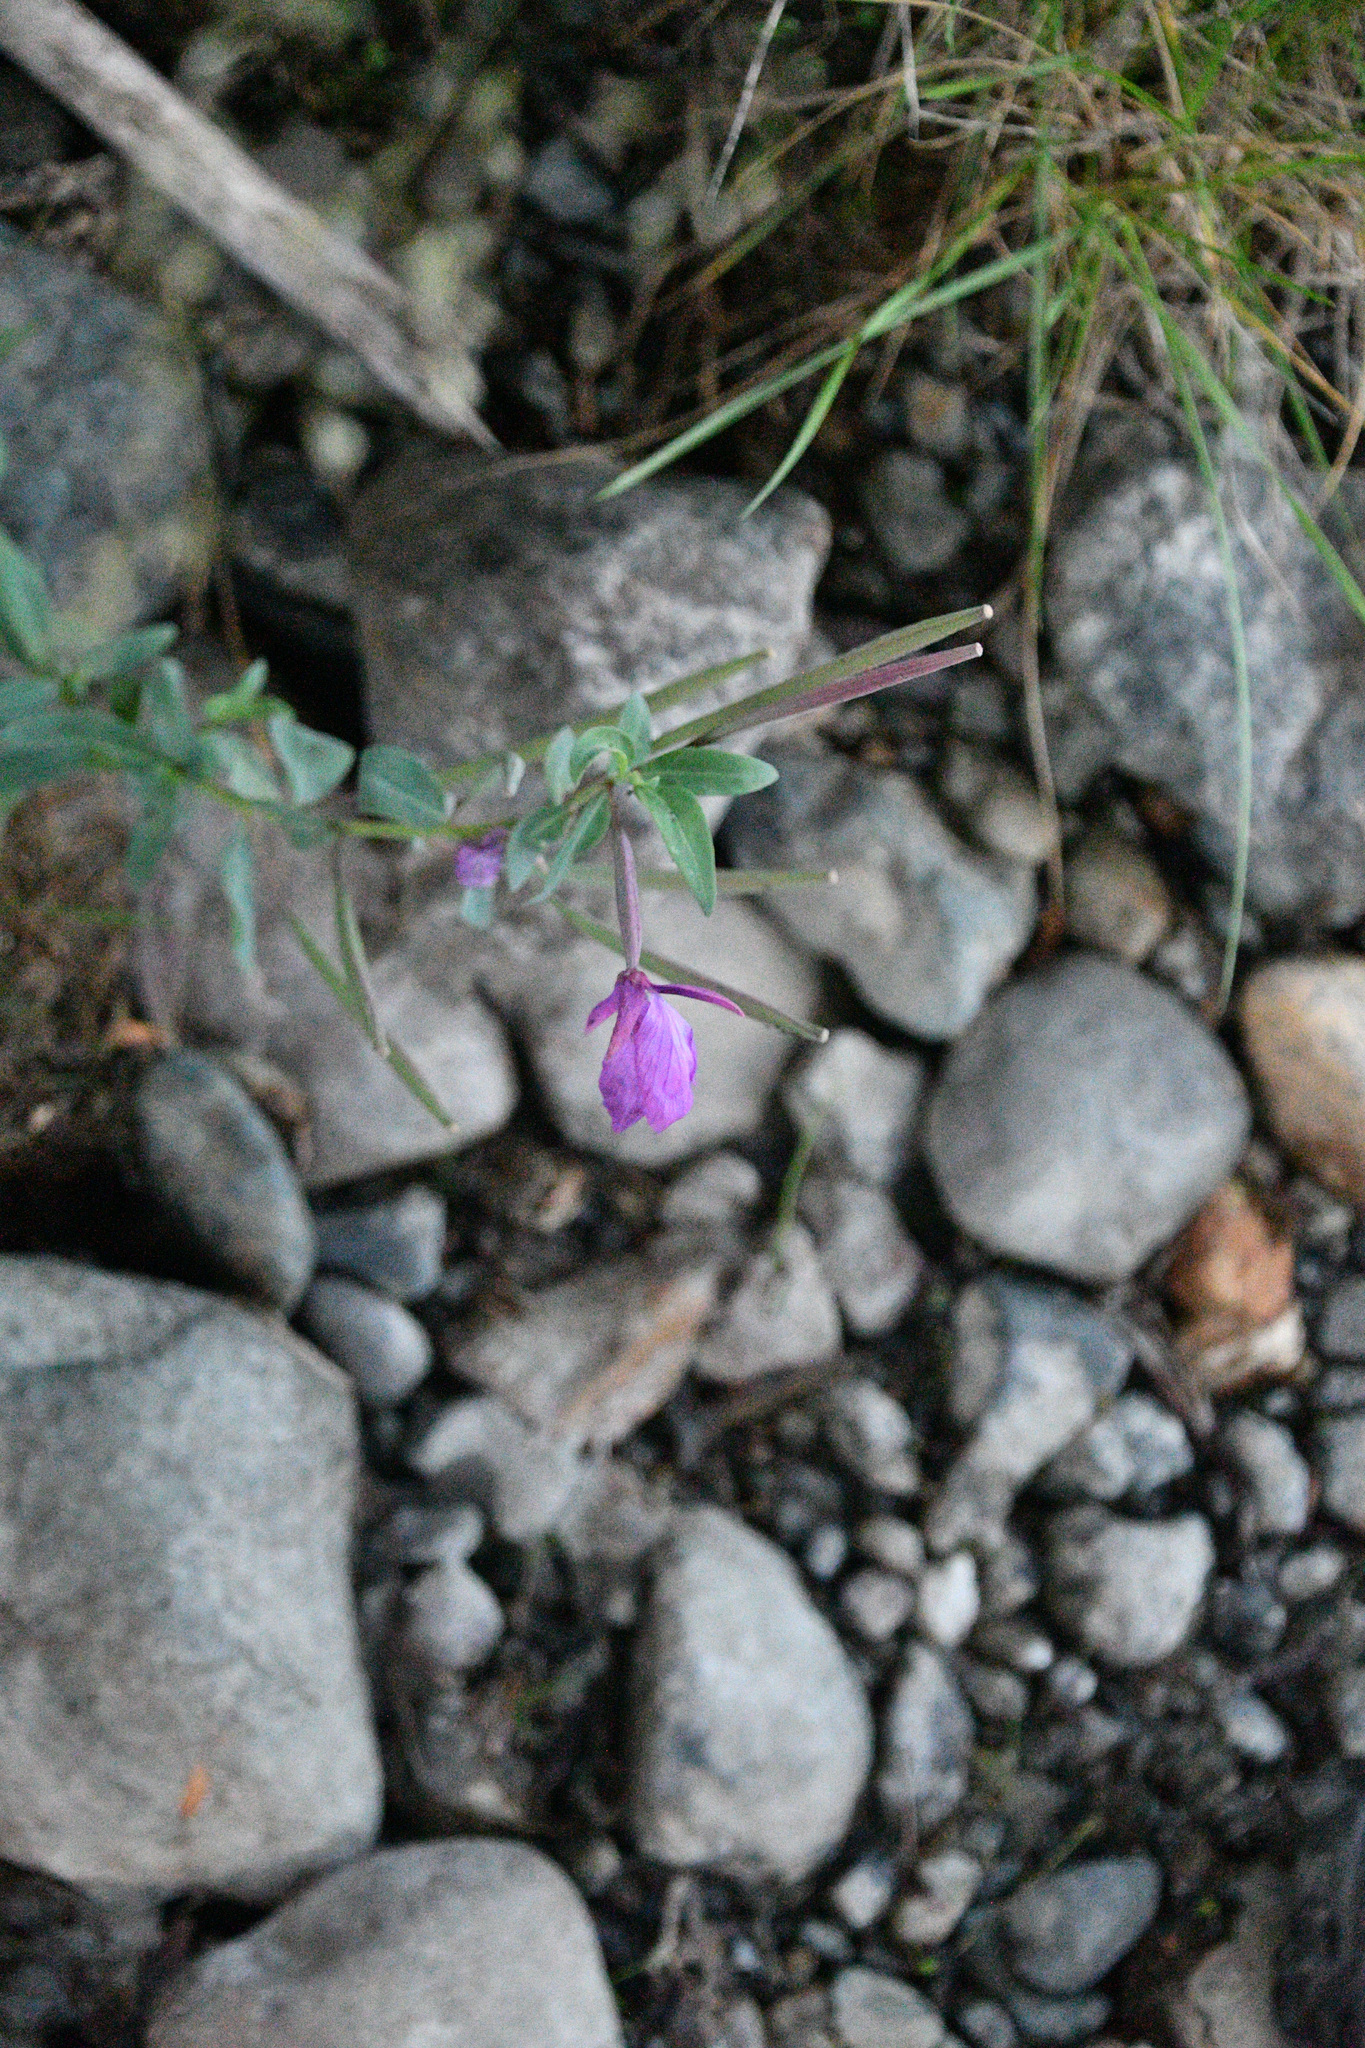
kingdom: Plantae
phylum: Tracheophyta
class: Magnoliopsida
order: Myrtales
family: Onagraceae
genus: Chamaenerion
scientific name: Chamaenerion latifolium
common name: Dwarf fireweed
